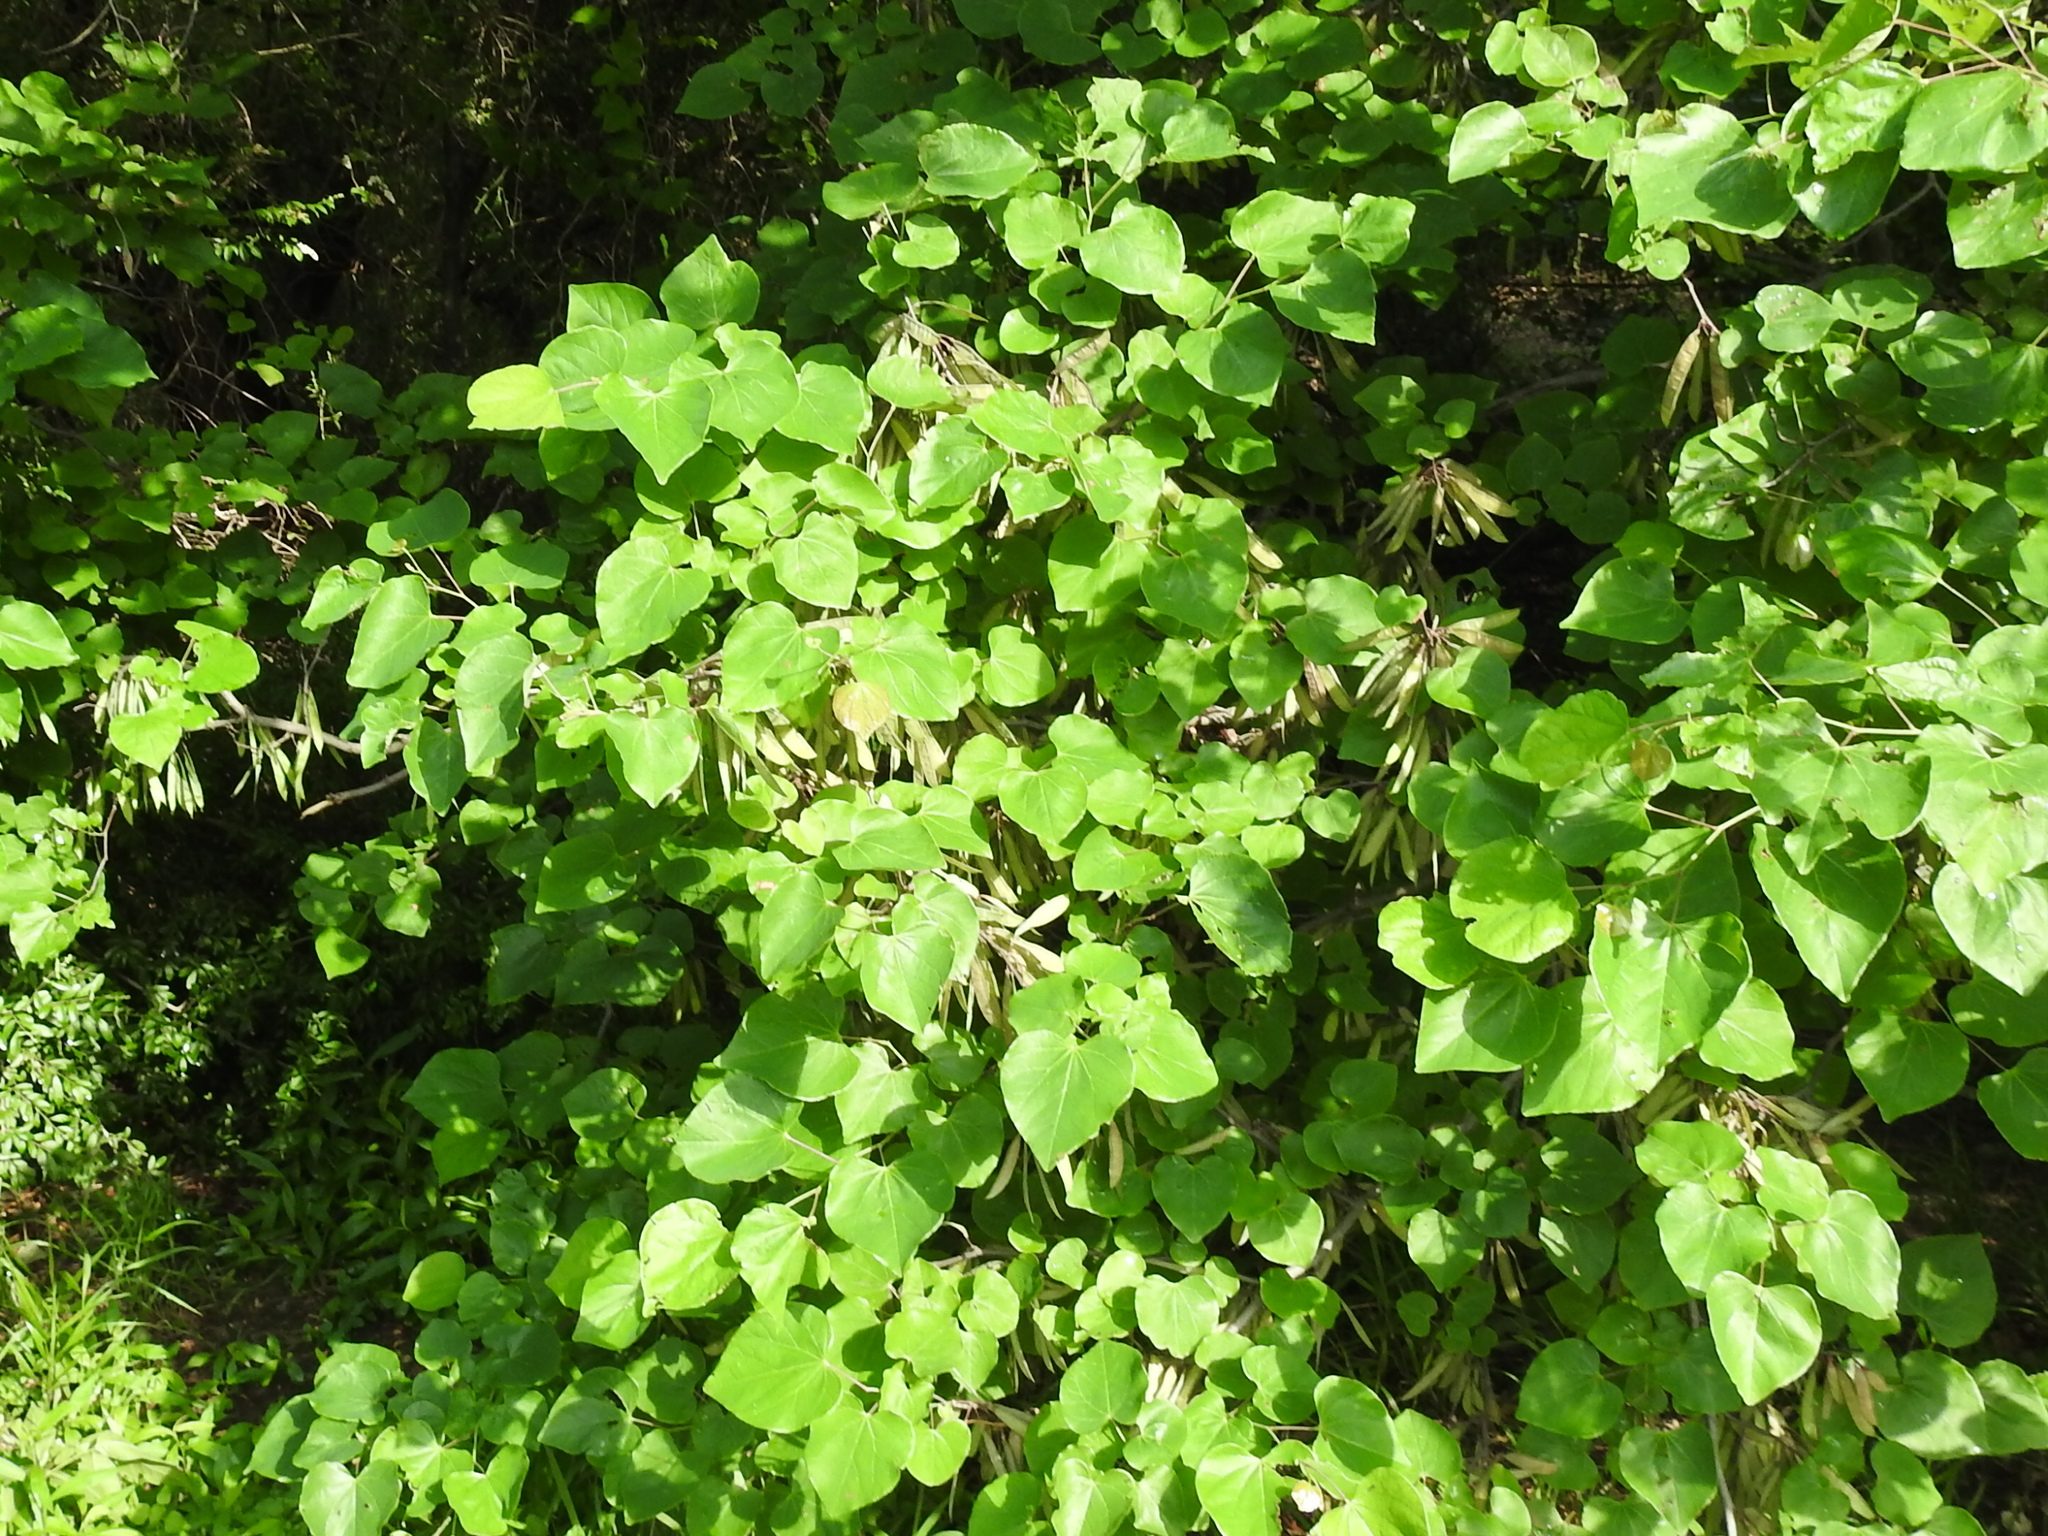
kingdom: Plantae
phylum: Tracheophyta
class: Magnoliopsida
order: Fabales
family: Fabaceae
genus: Cercis
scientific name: Cercis canadensis
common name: Eastern redbud
